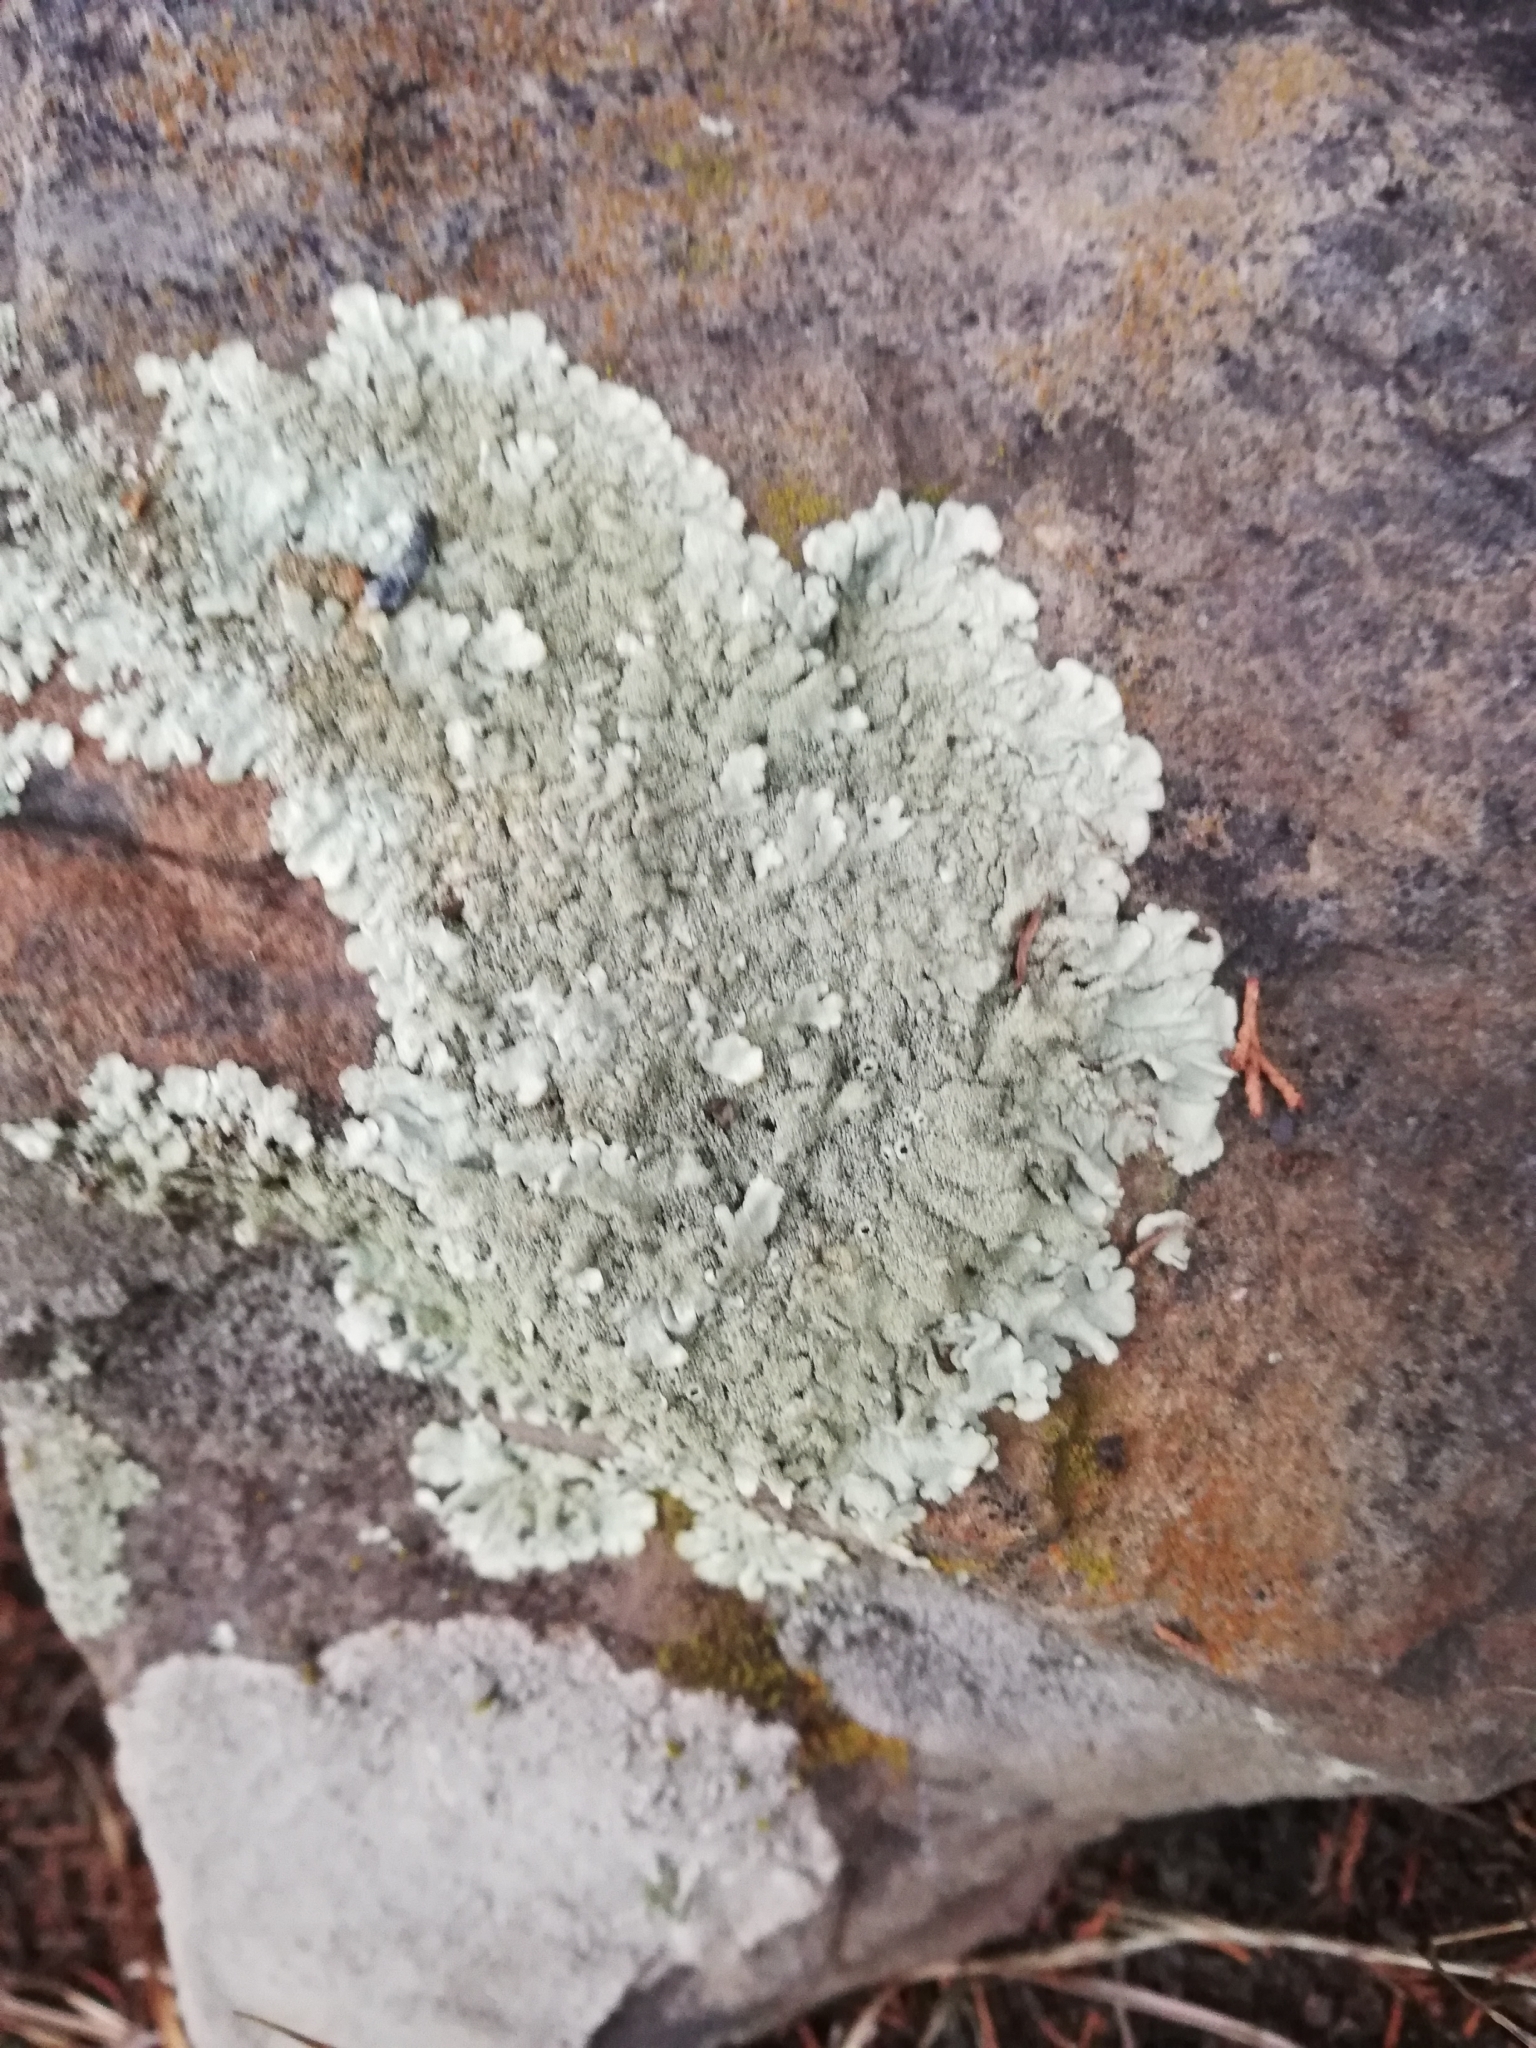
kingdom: Fungi
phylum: Ascomycota
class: Lecanoromycetes
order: Lecanorales
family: Parmeliaceae
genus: Xanthoparmelia
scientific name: Xanthoparmelia conspersa
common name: Peppered rock shield
